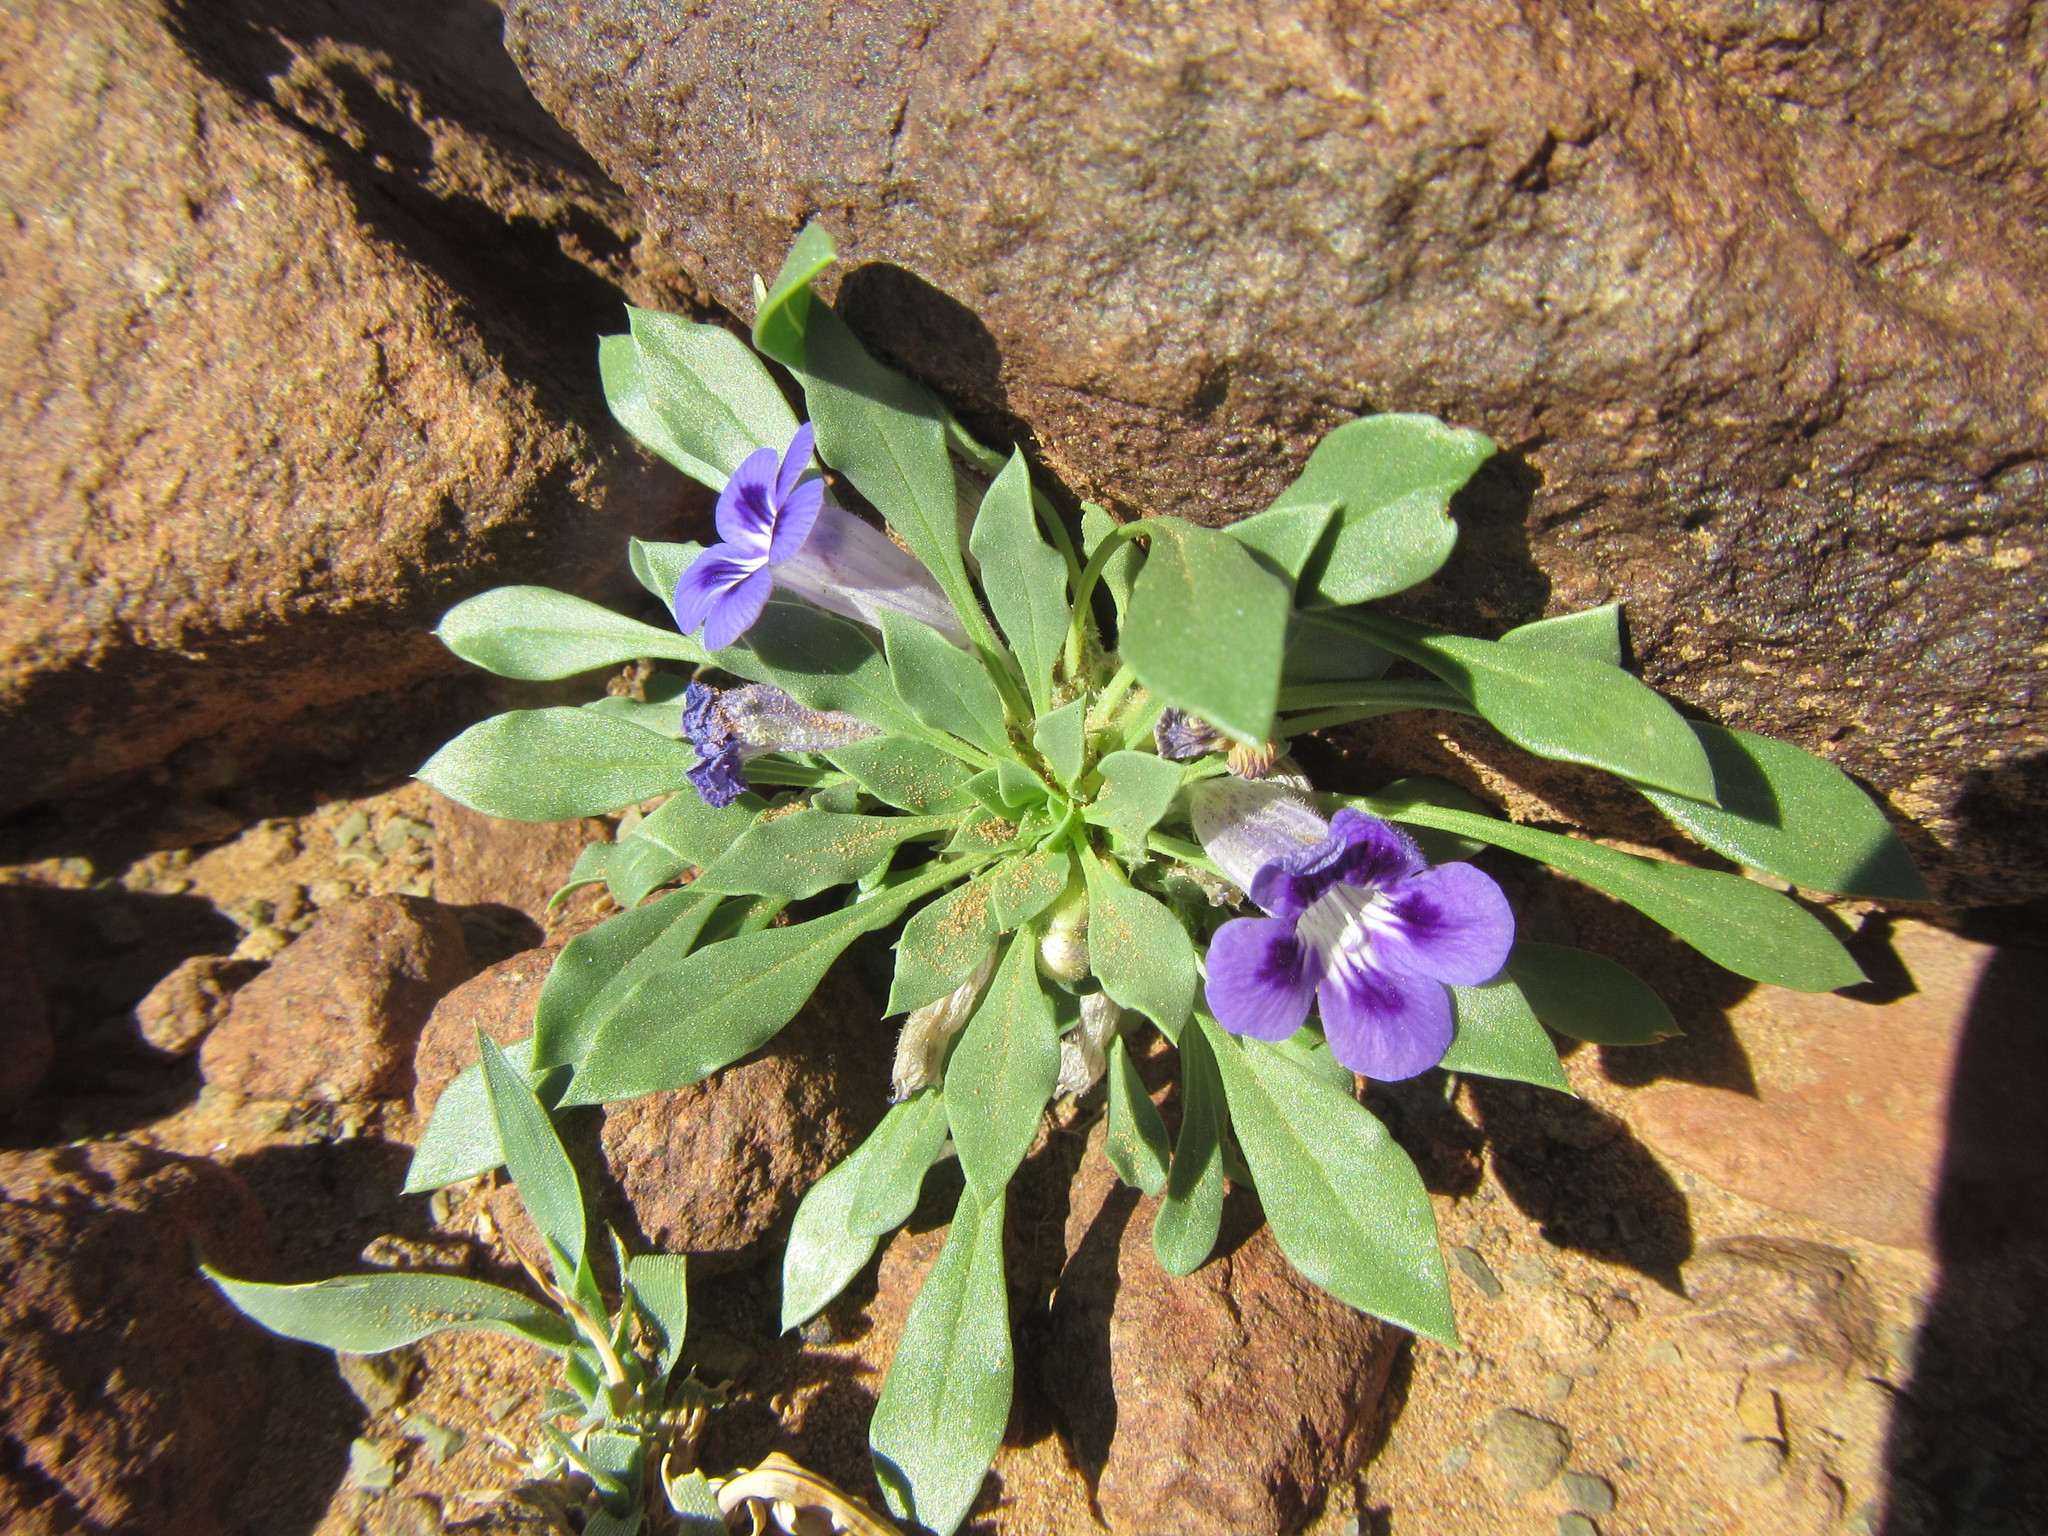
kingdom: Plantae
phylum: Tracheophyta
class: Magnoliopsida
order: Lamiales
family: Scrophulariaceae
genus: Aptosimum
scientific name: Aptosimum indivisum
